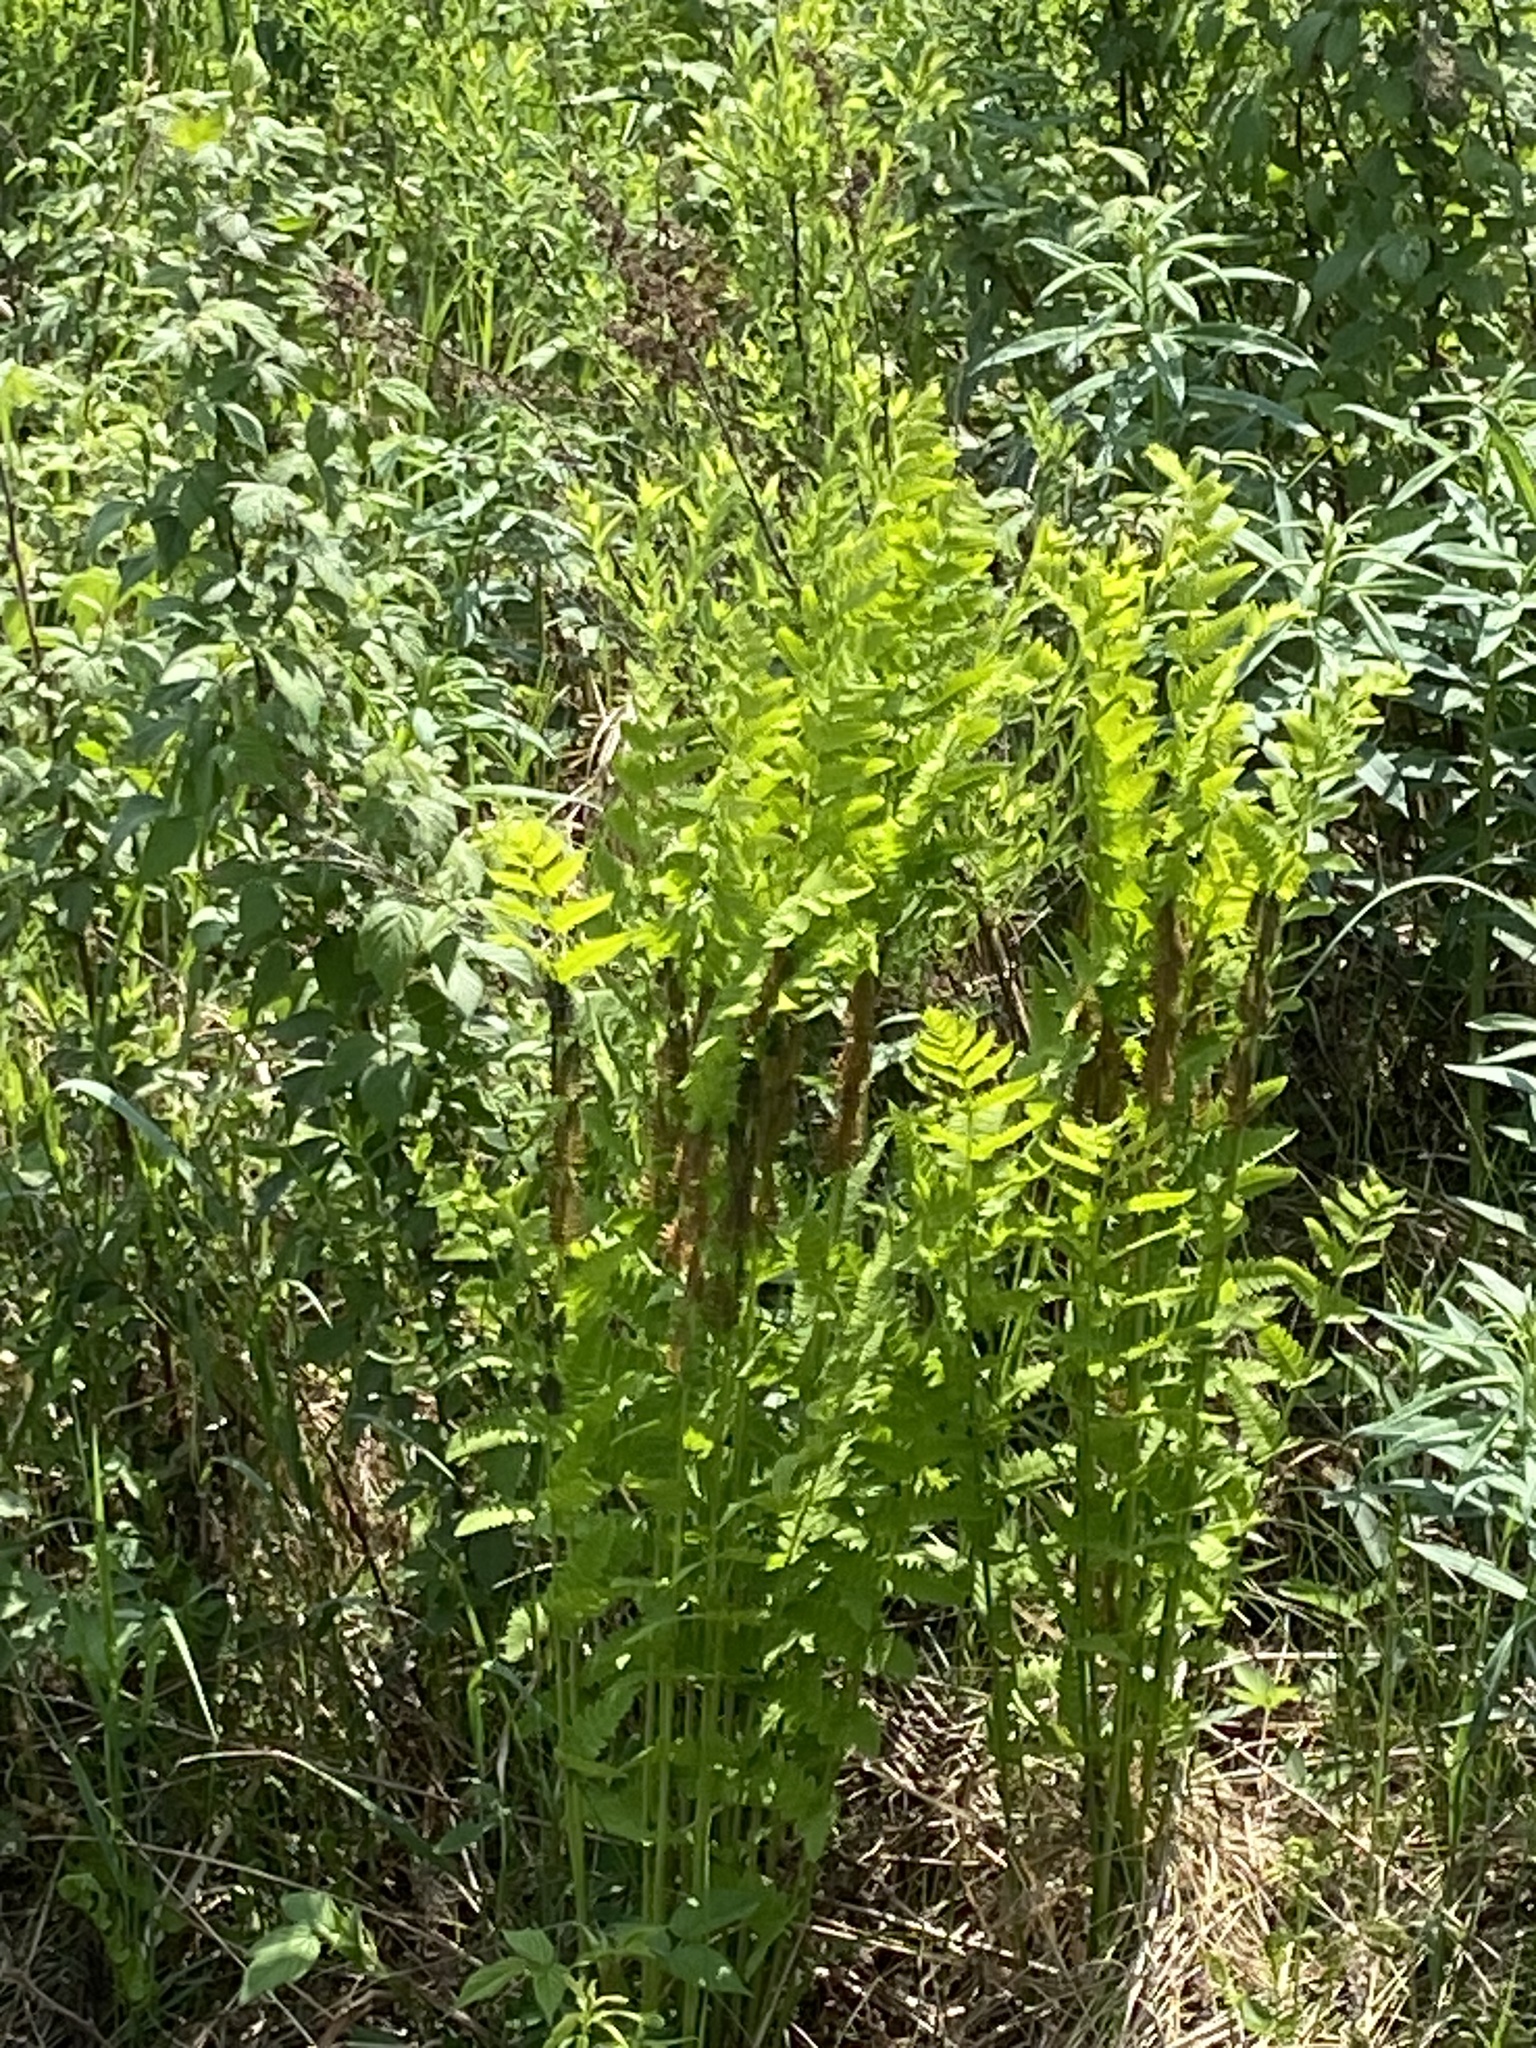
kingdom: Plantae
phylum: Tracheophyta
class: Polypodiopsida
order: Osmundales
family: Osmundaceae
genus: Claytosmunda
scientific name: Claytosmunda claytoniana
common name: Clayton's fern
